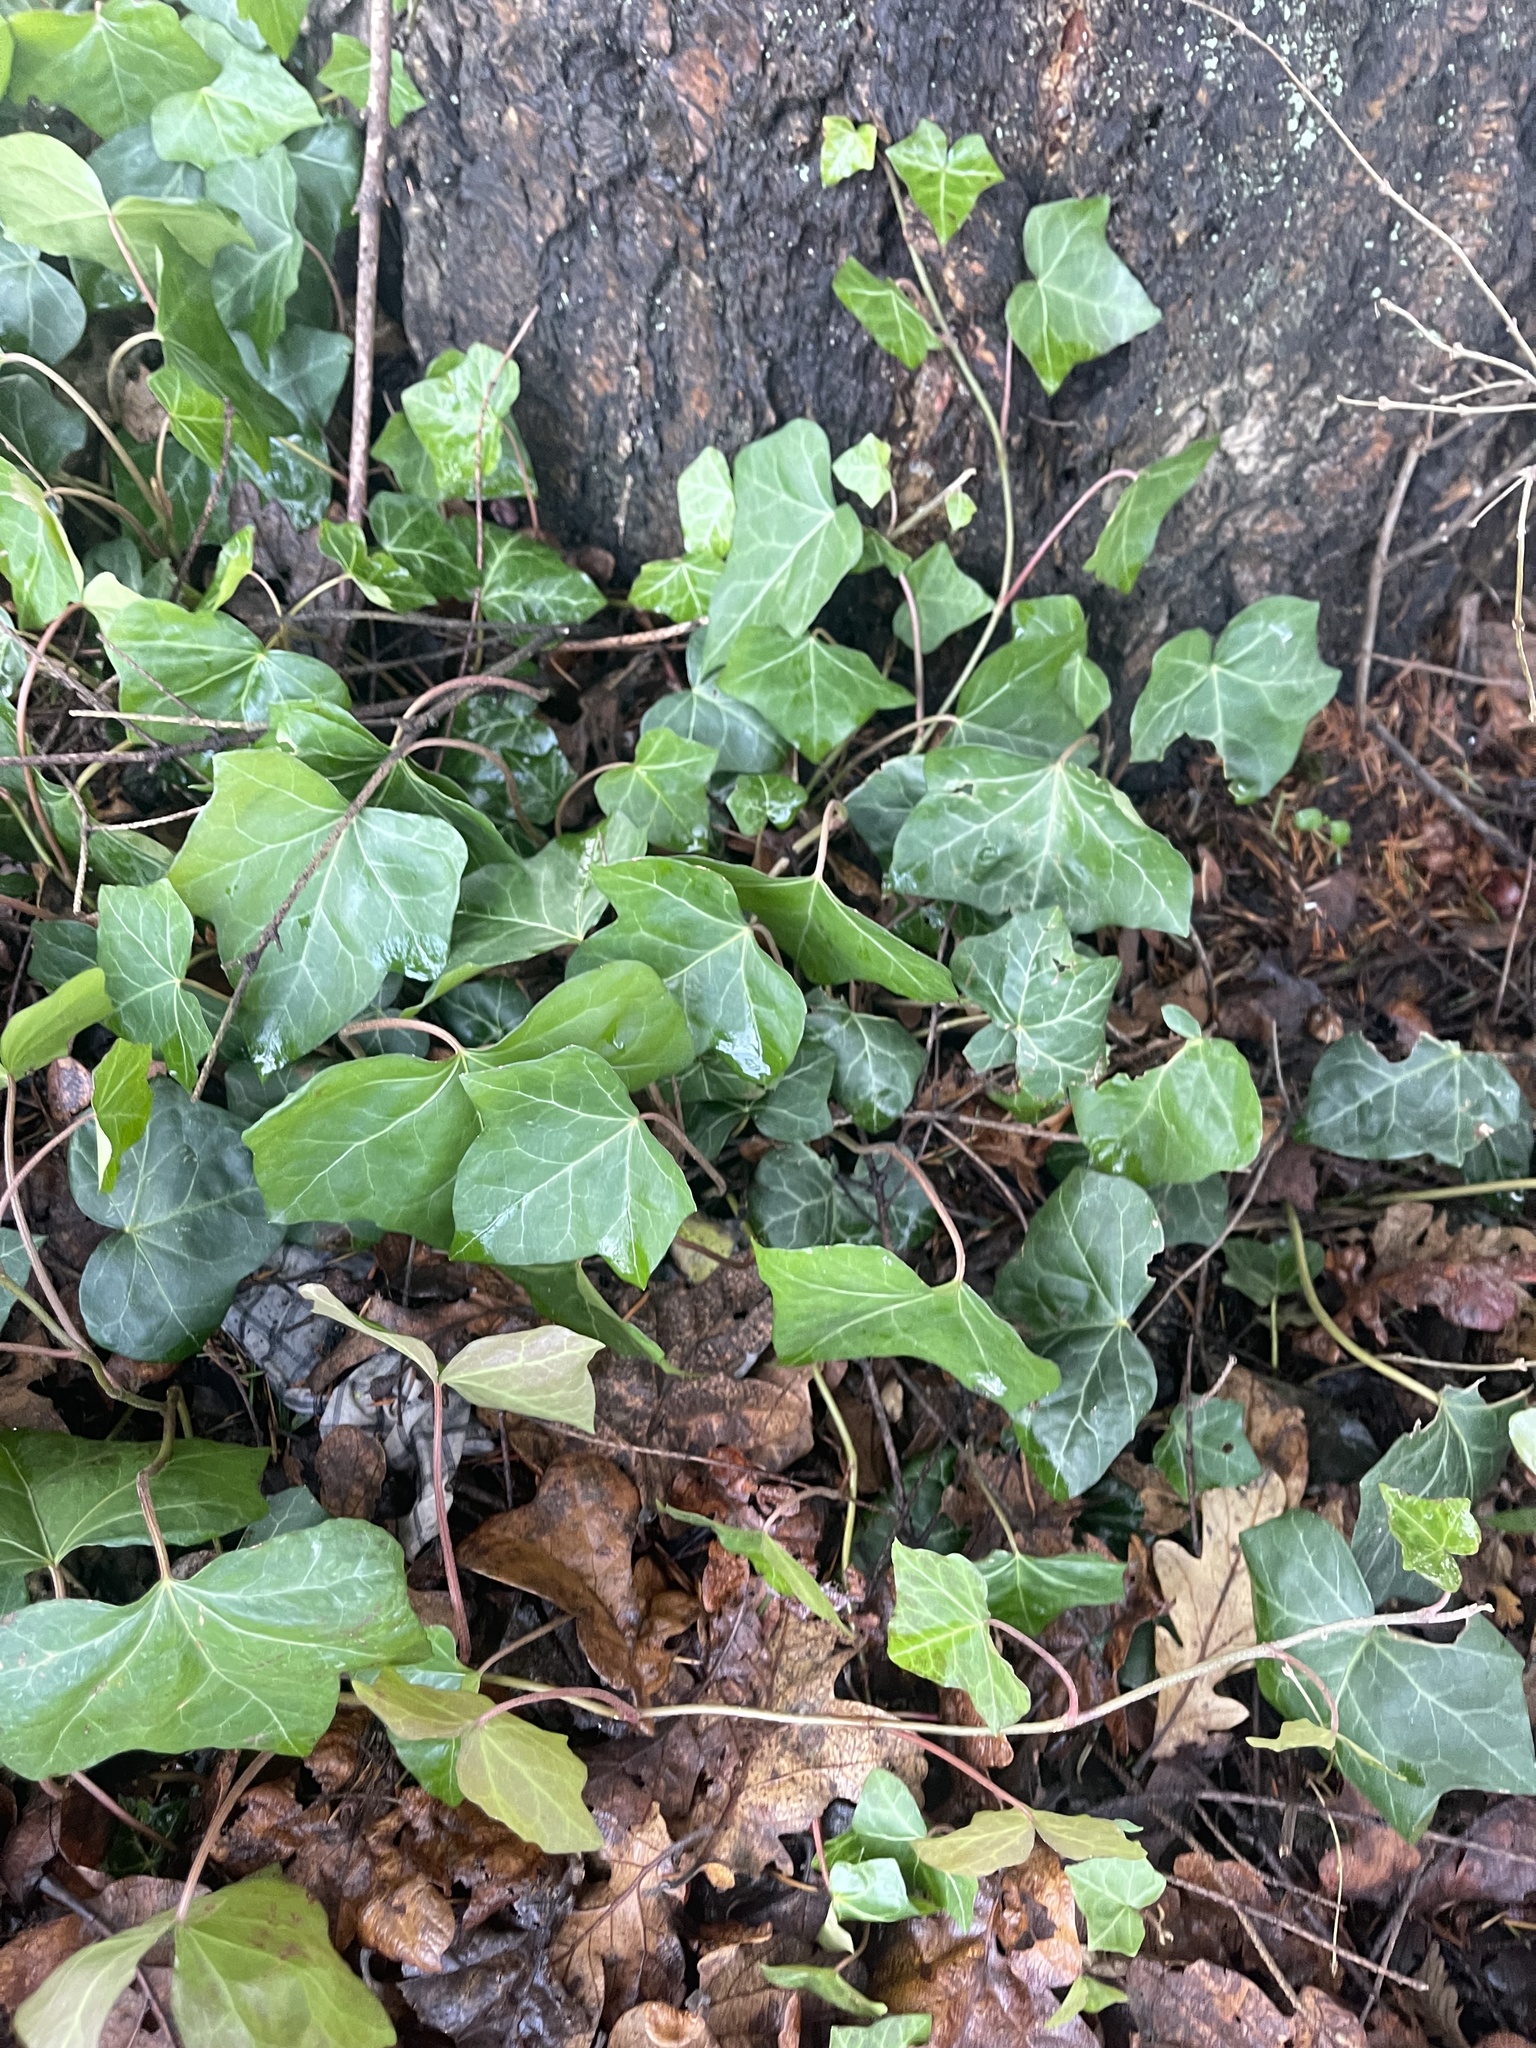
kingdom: Plantae
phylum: Tracheophyta
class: Magnoliopsida
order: Apiales
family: Araliaceae
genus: Hedera
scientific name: Hedera helix
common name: Ivy
